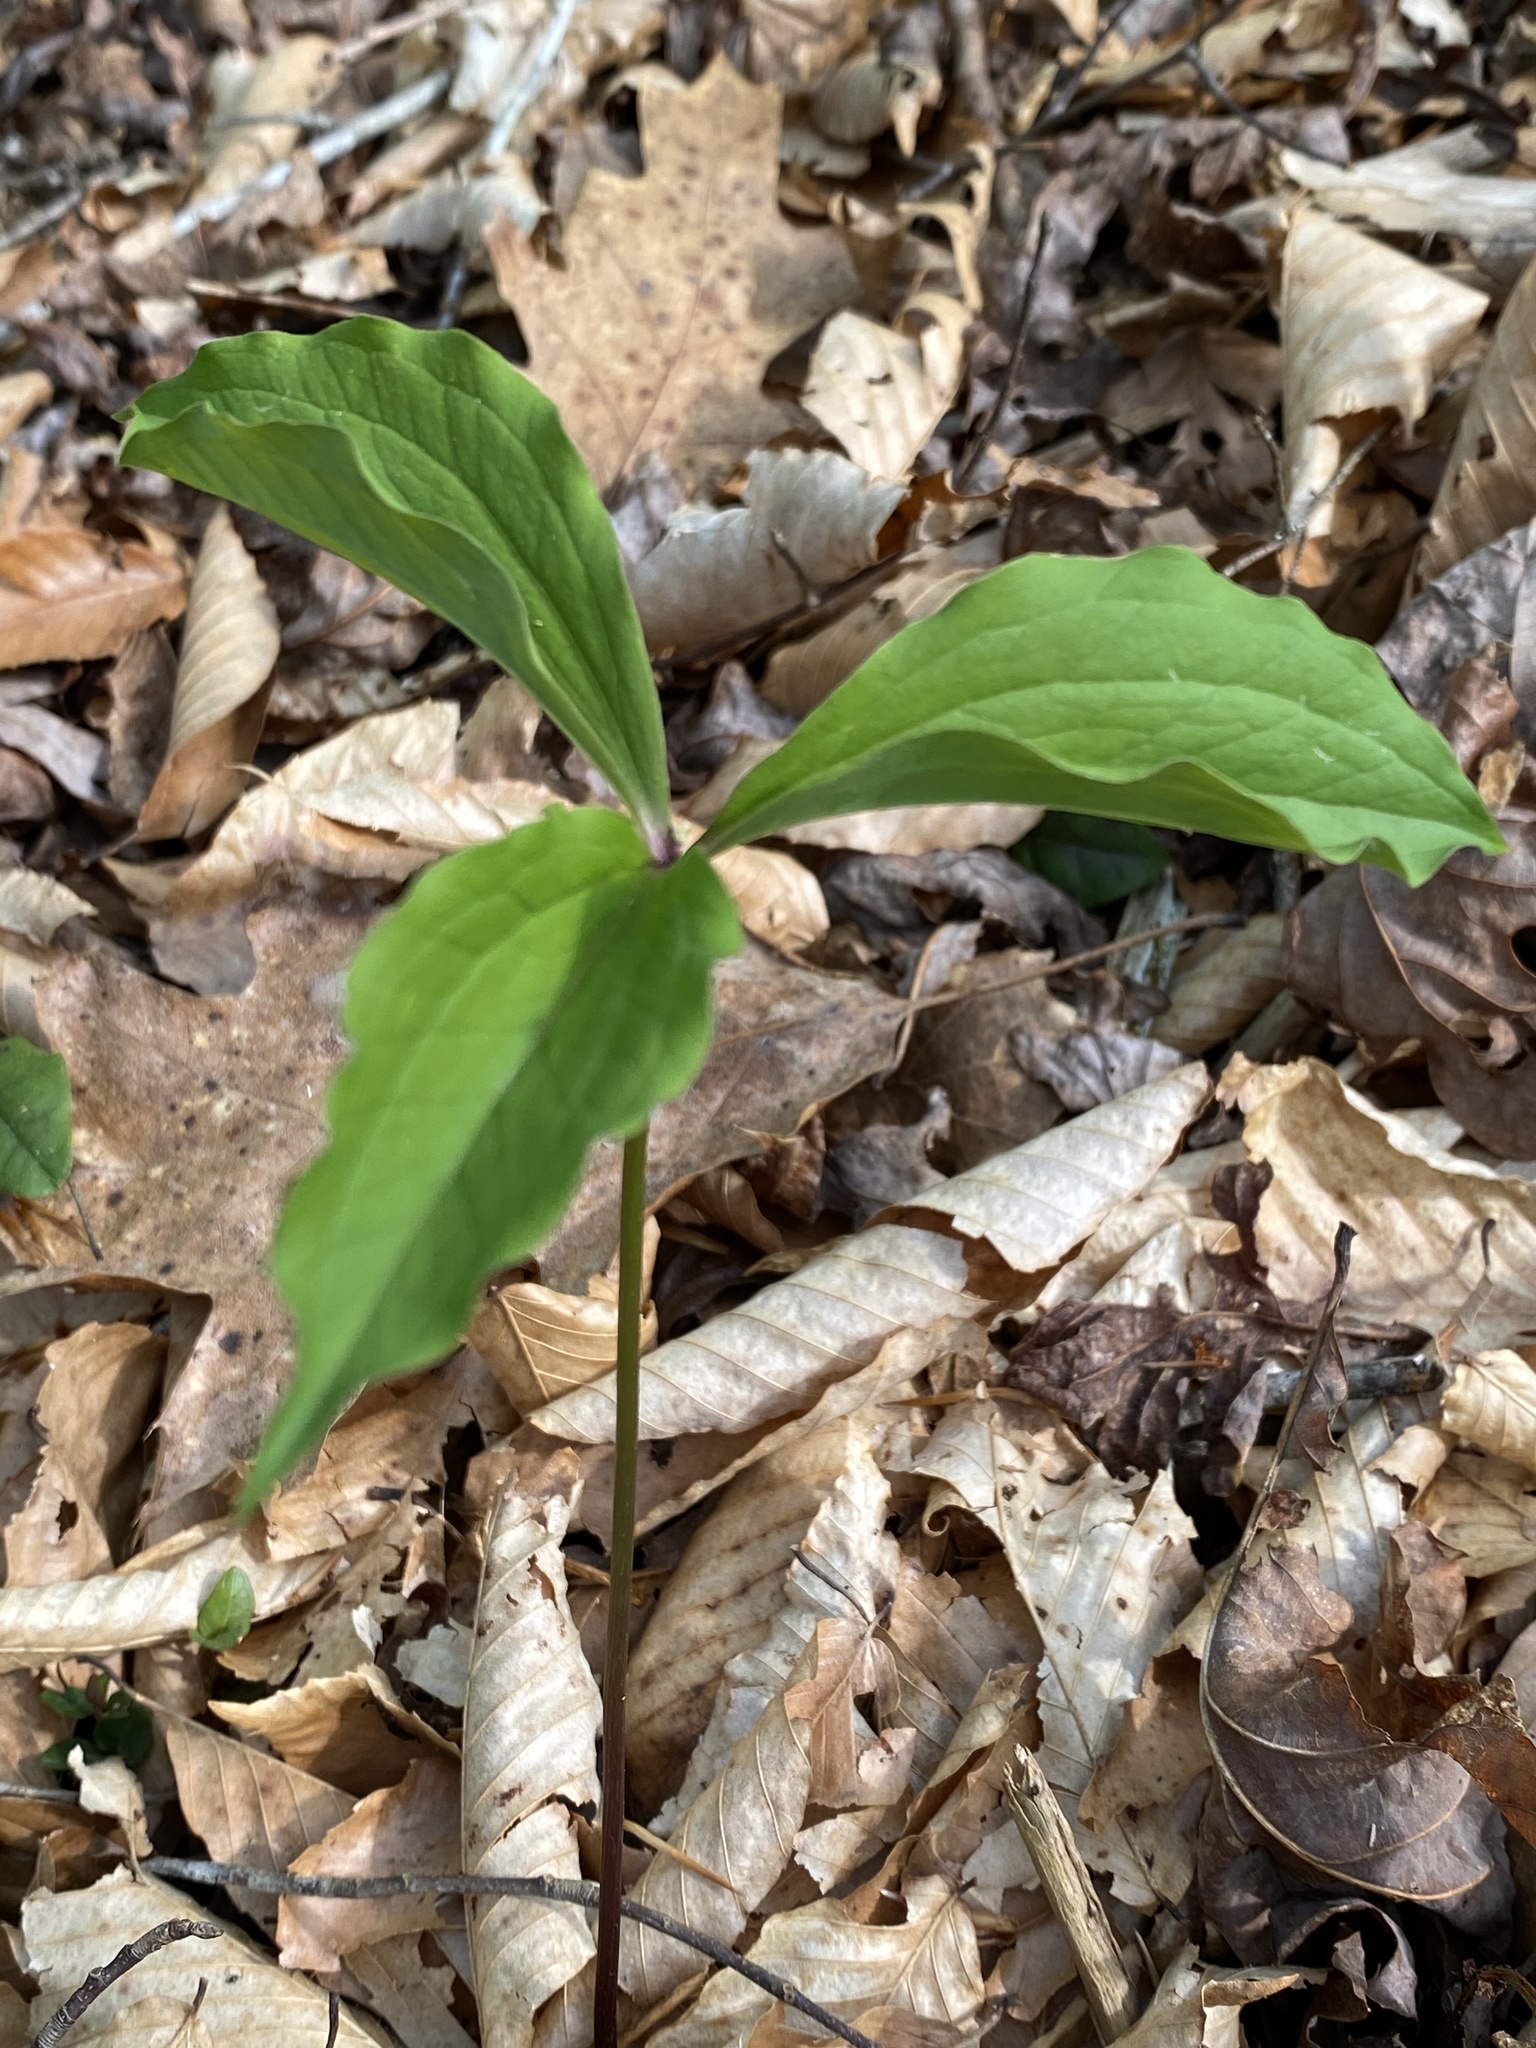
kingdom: Plantae
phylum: Tracheophyta
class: Liliopsida
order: Liliales
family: Melanthiaceae
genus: Trillium
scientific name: Trillium catesbaei
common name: Bashful trillium
